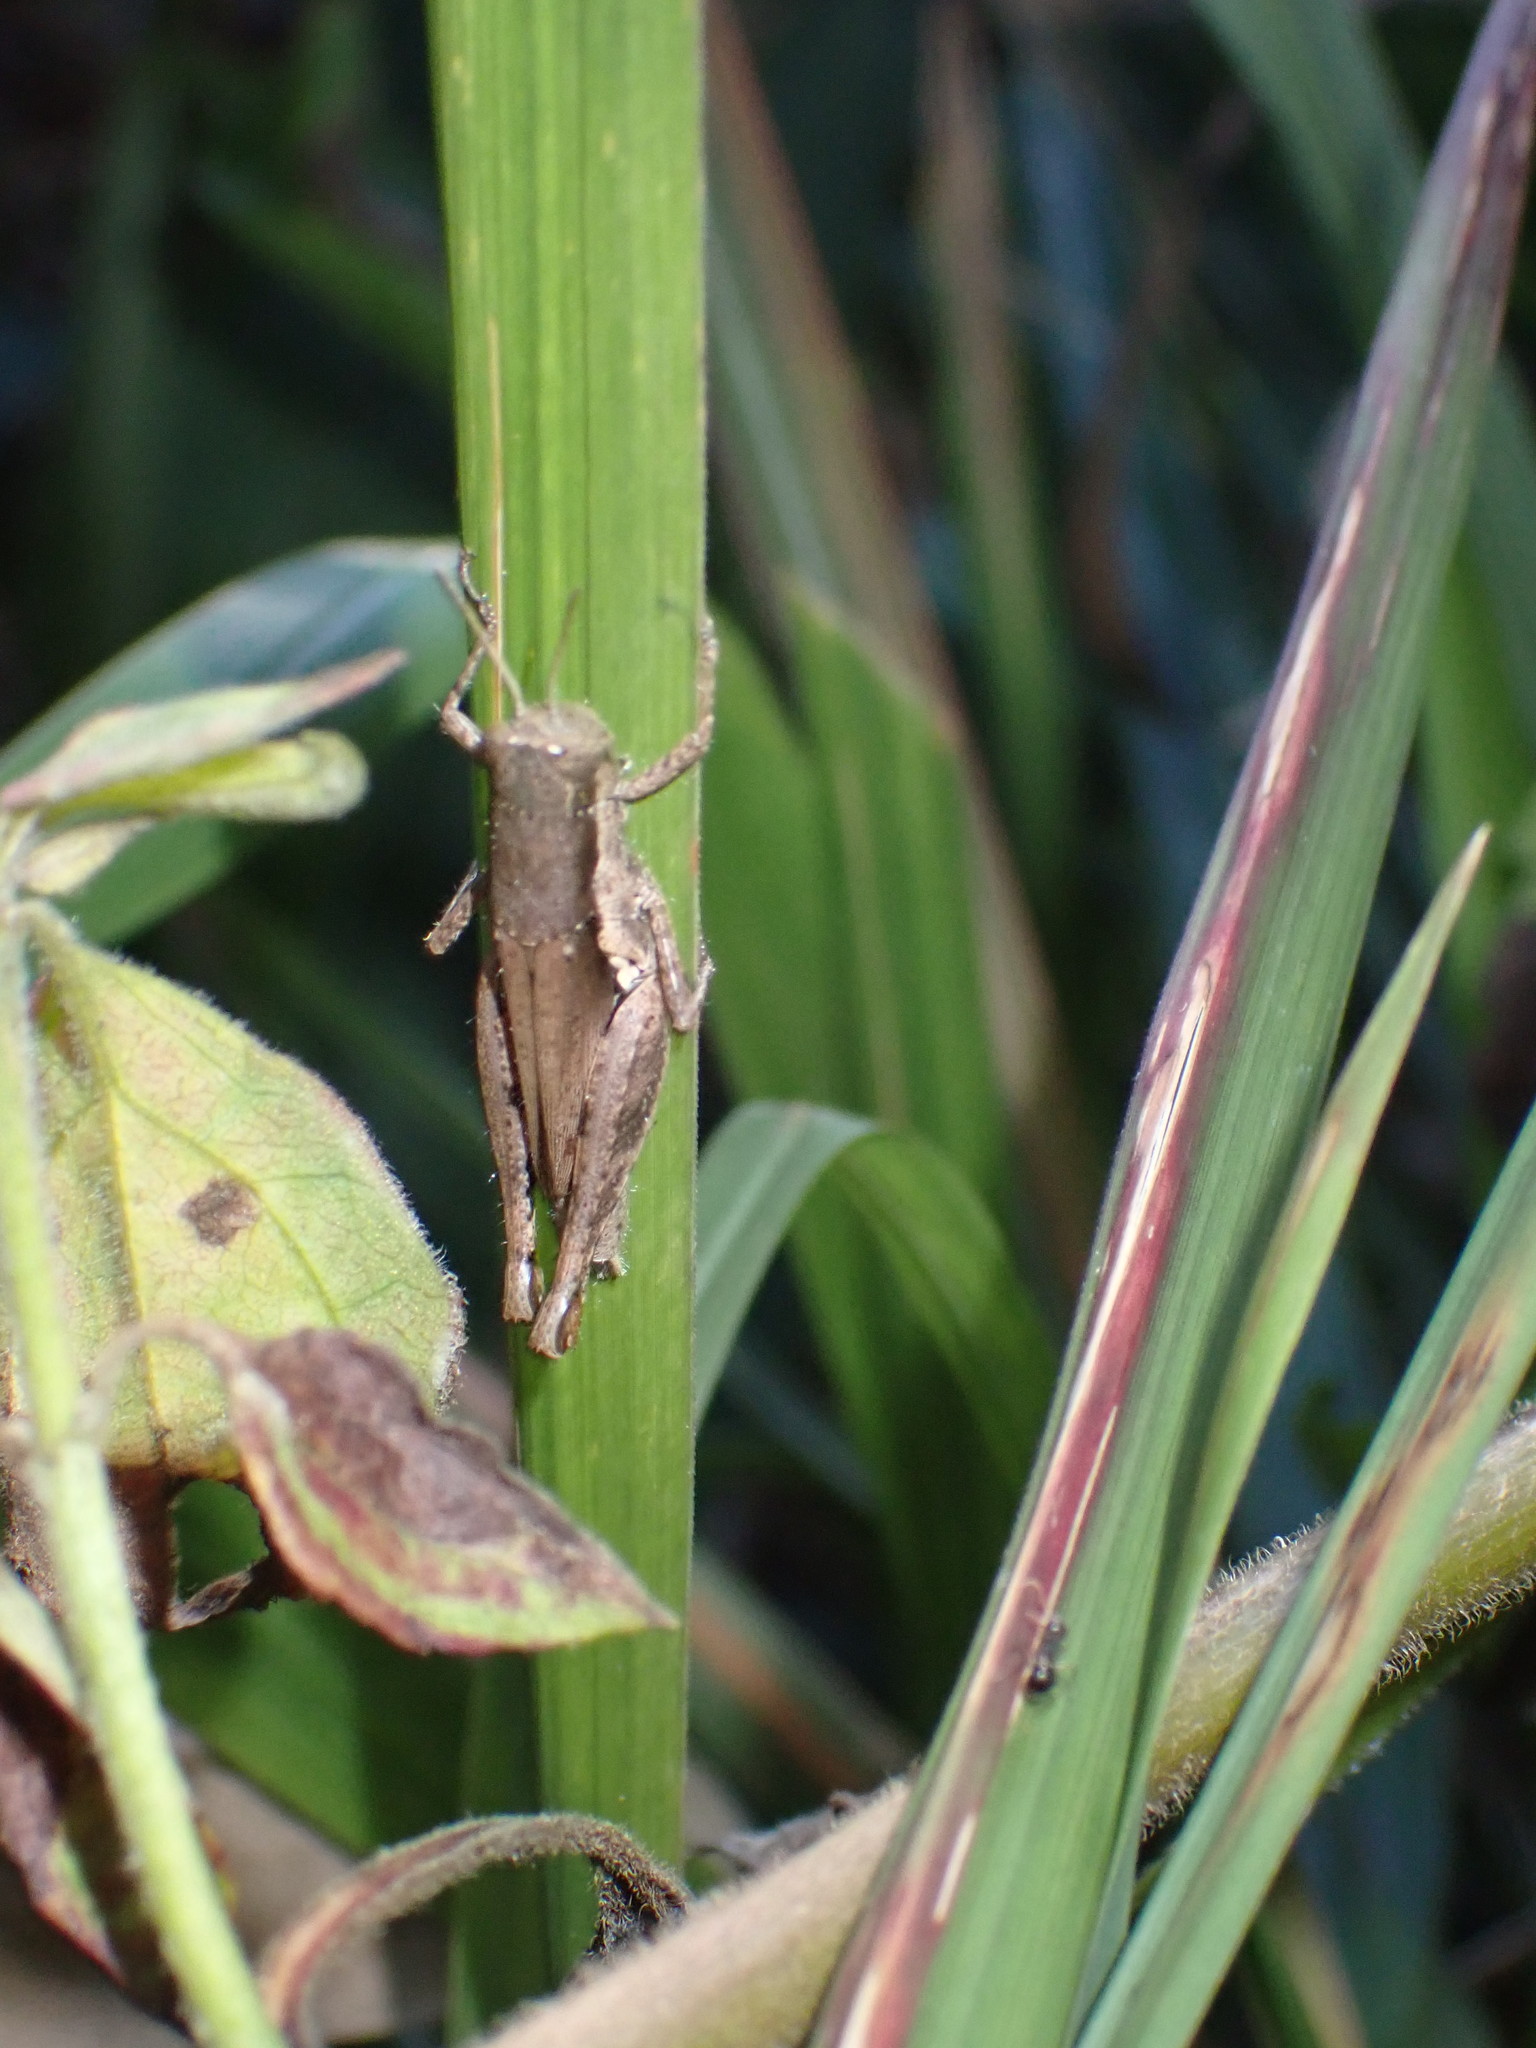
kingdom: Animalia
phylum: Arthropoda
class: Insecta
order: Orthoptera
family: Acrididae
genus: Pseudoxya
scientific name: Pseudoxya diminuta
